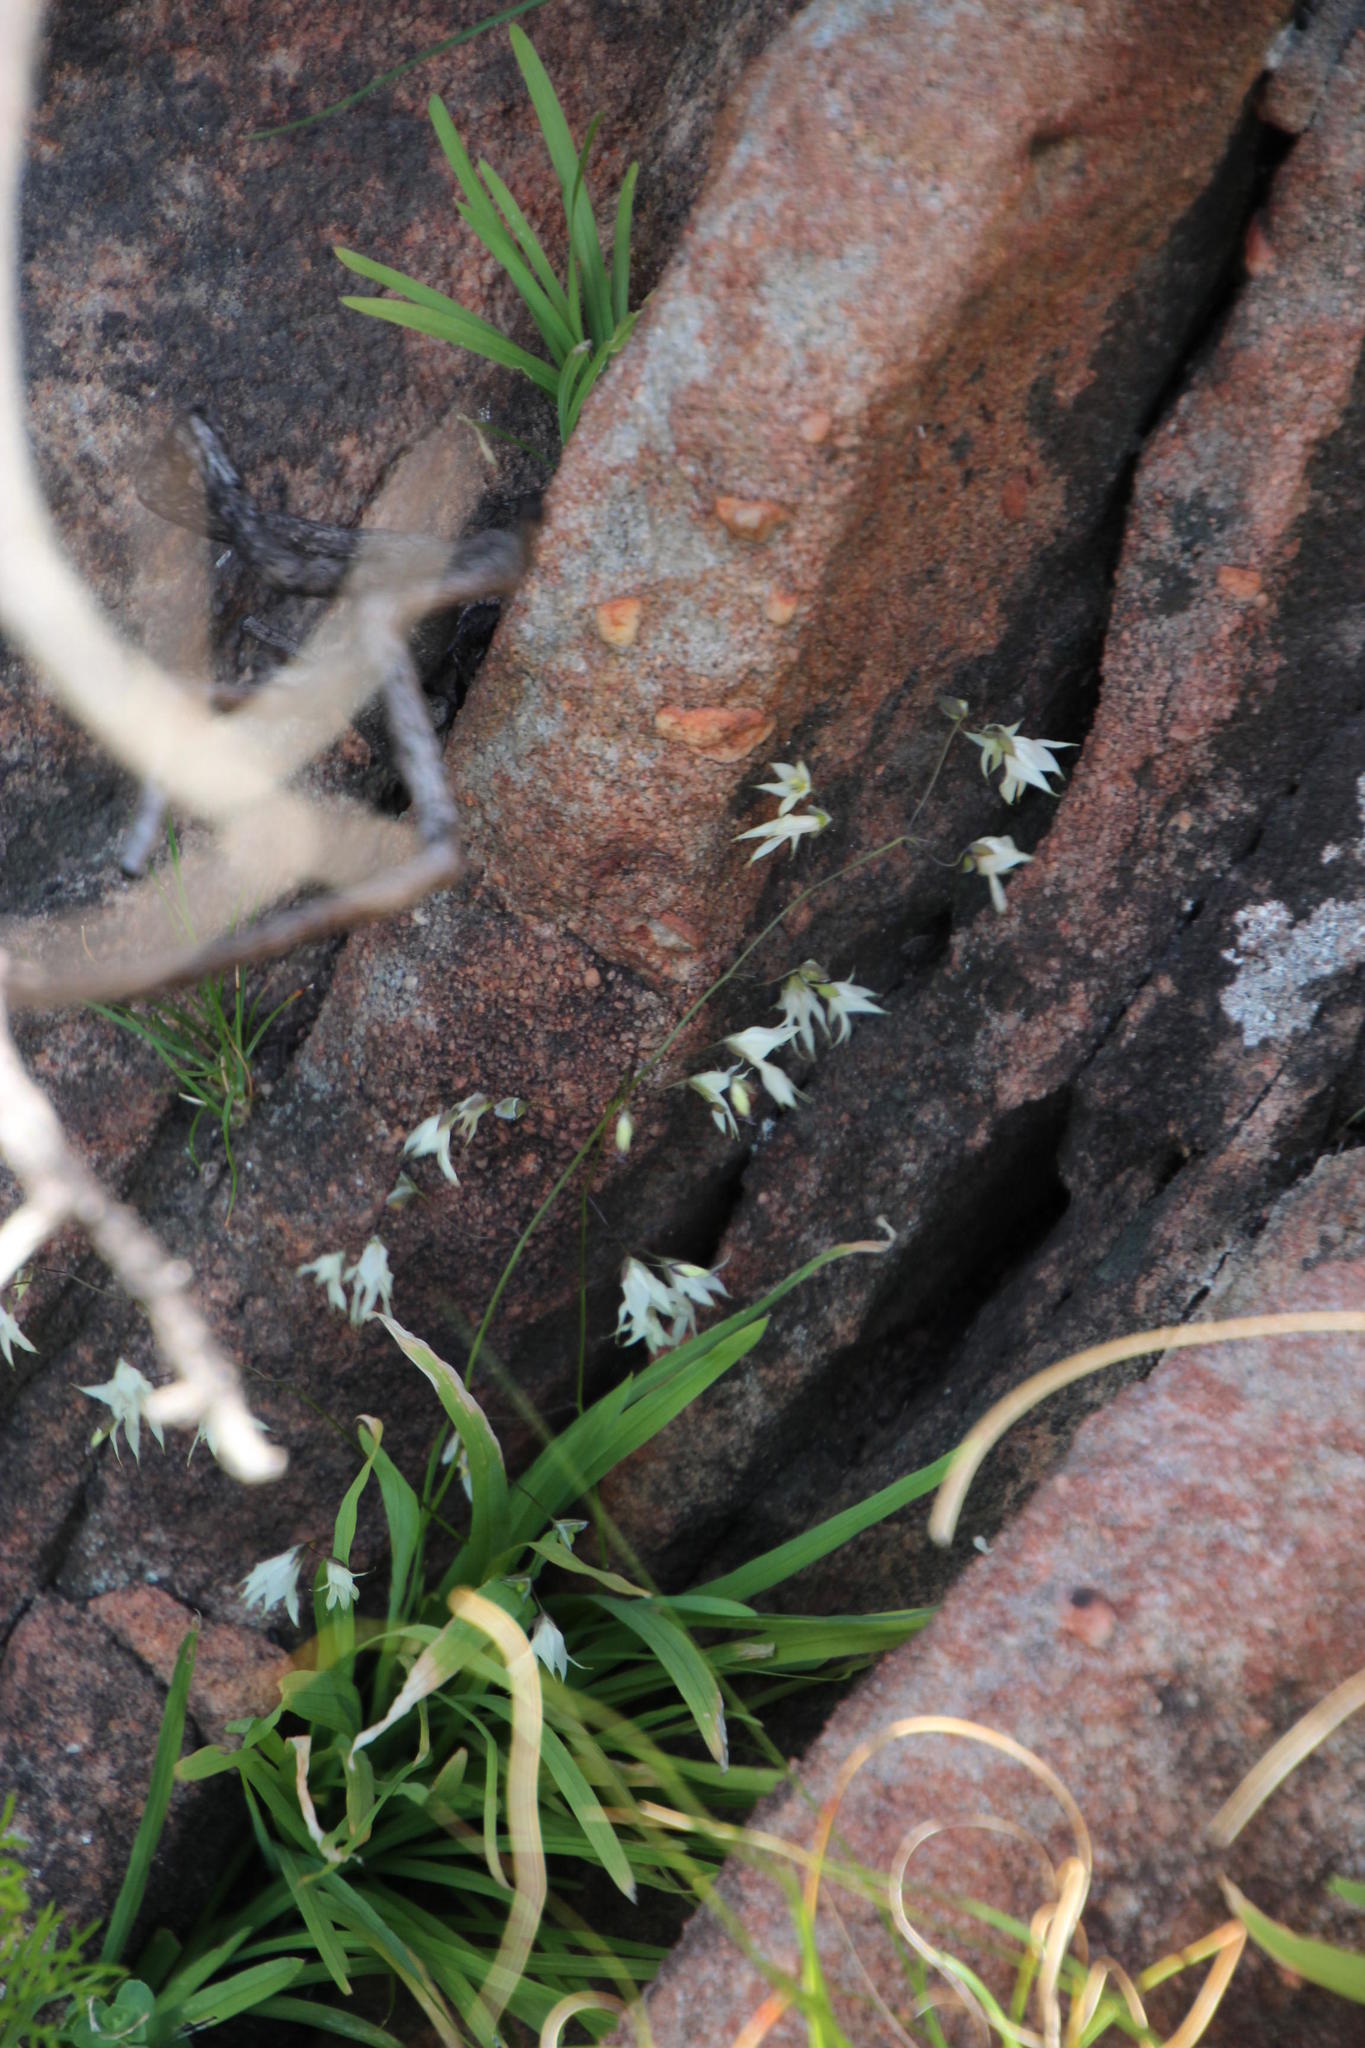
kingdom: Plantae
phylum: Tracheophyta
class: Liliopsida
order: Asparagales
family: Iridaceae
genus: Melasphaerula
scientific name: Melasphaerula graminea
